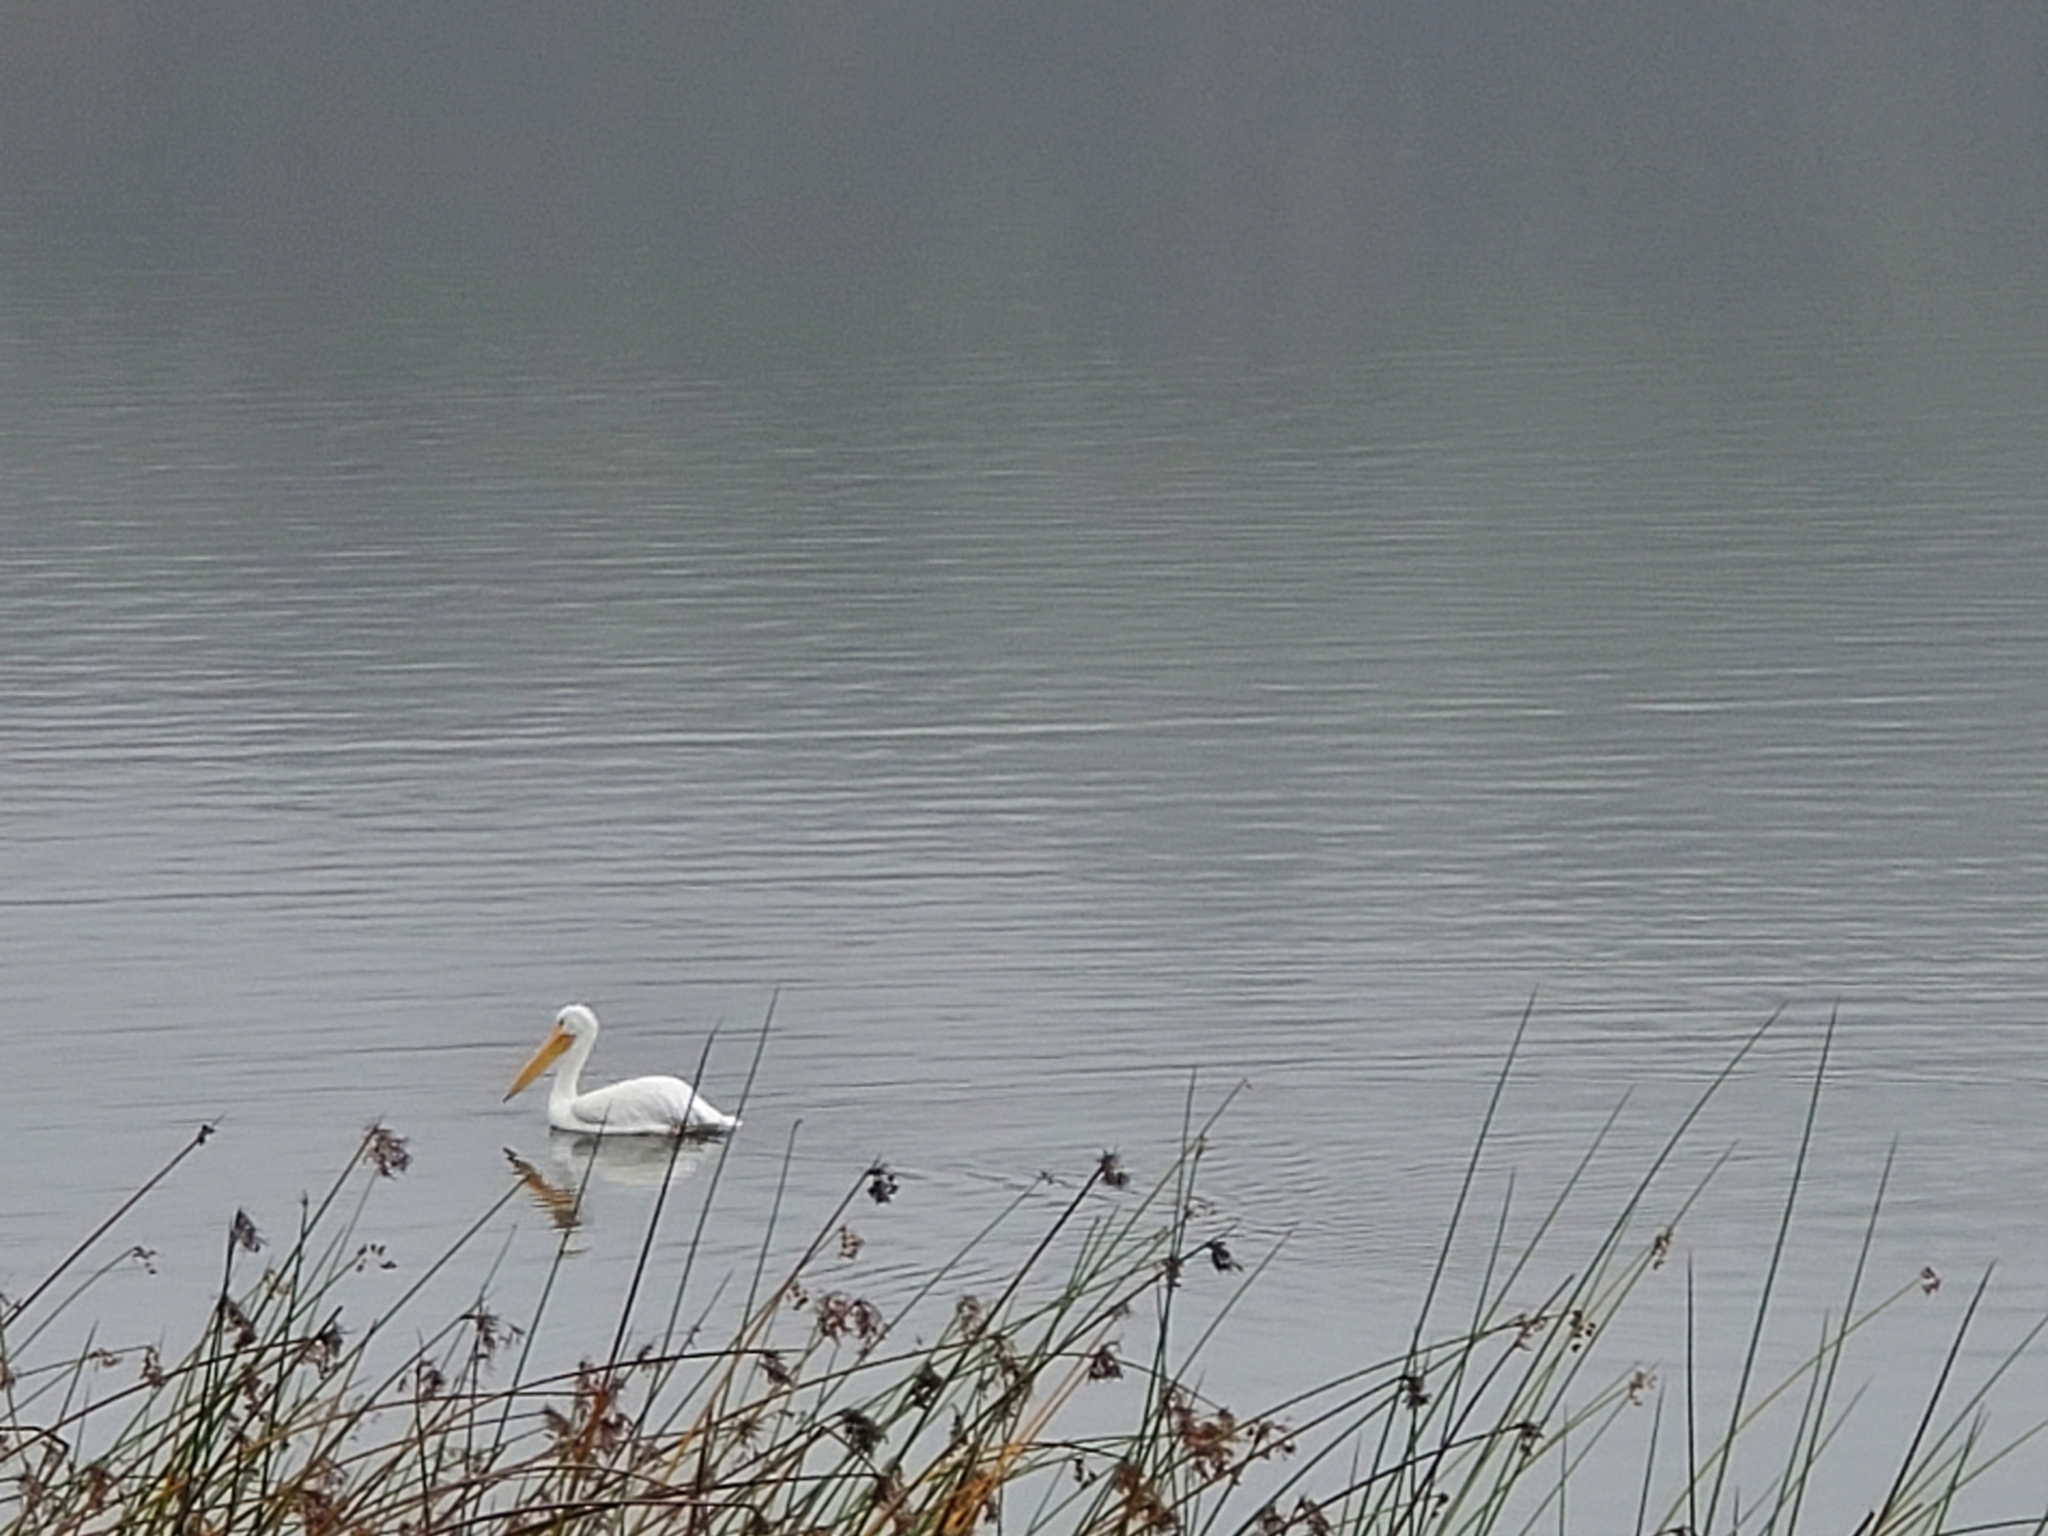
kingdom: Animalia
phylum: Chordata
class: Aves
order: Pelecaniformes
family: Pelecanidae
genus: Pelecanus
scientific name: Pelecanus erythrorhynchos
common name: American white pelican
